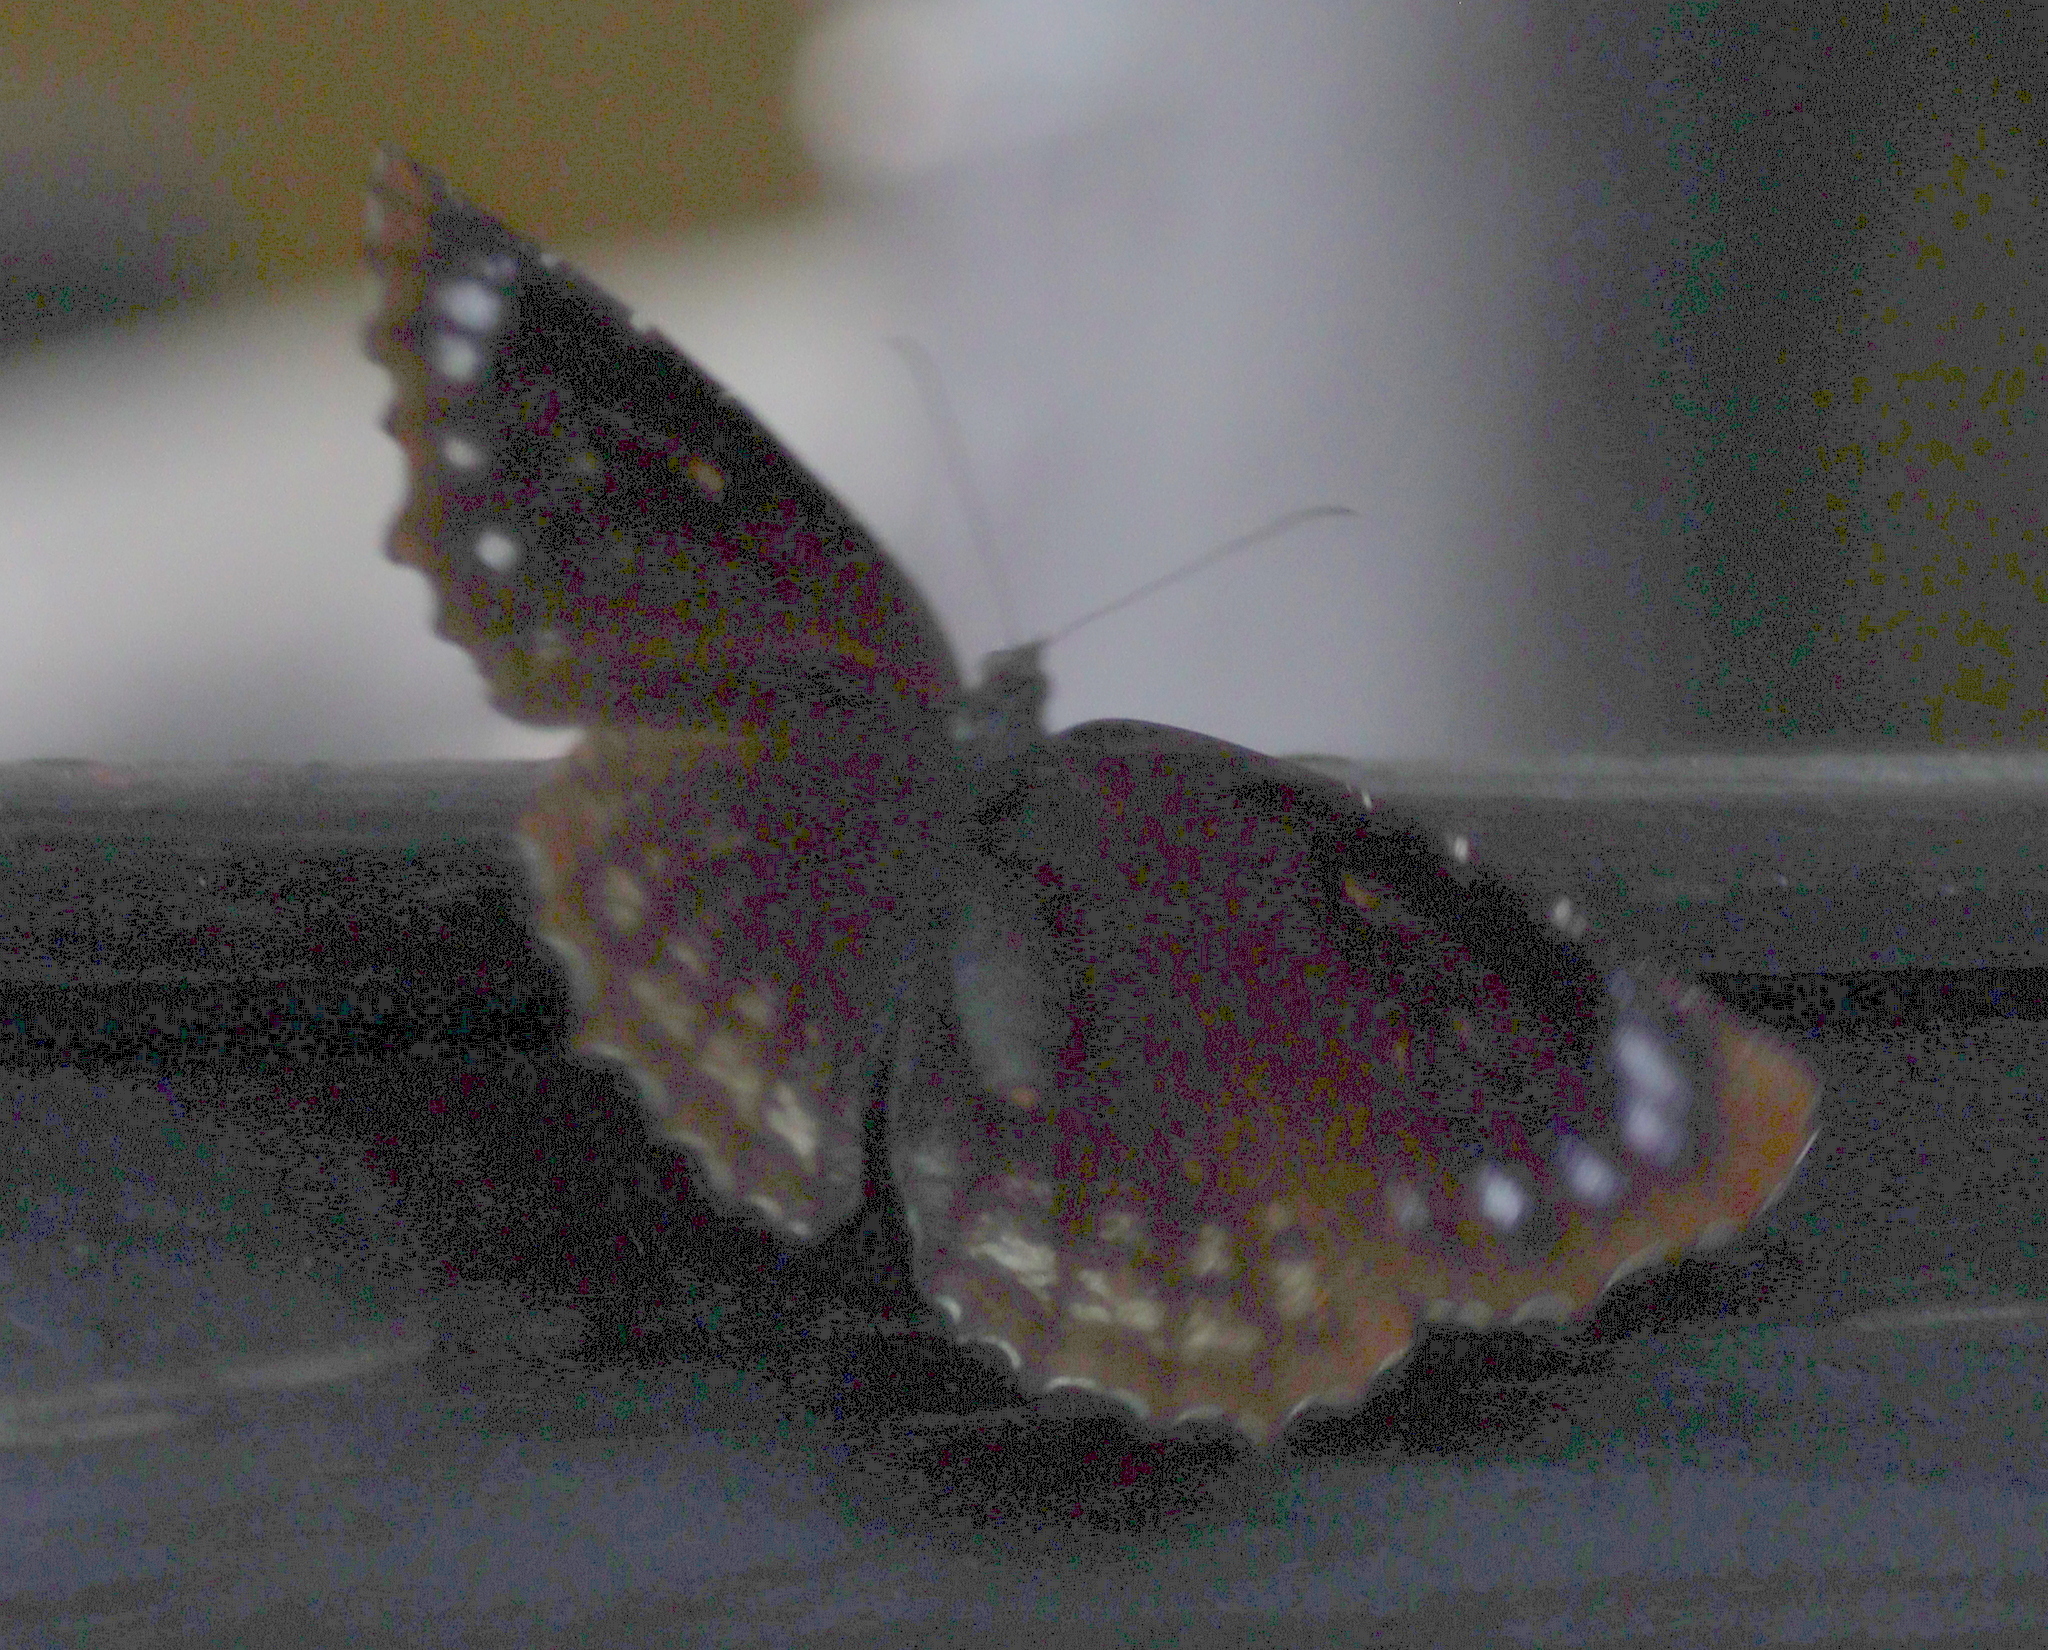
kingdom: Animalia
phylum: Arthropoda
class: Insecta
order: Lepidoptera
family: Nymphalidae
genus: Elymnias
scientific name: Elymnias casiphone
